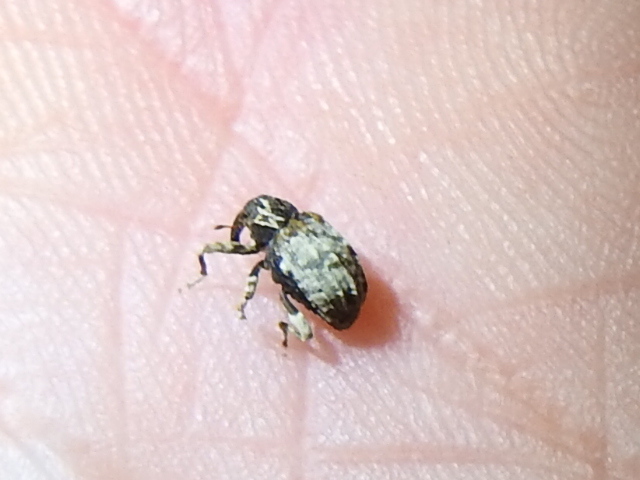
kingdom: Animalia
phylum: Arthropoda
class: Insecta
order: Coleoptera
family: Curculionidae
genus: Conotrachelus
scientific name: Conotrachelus leucophaeatus
